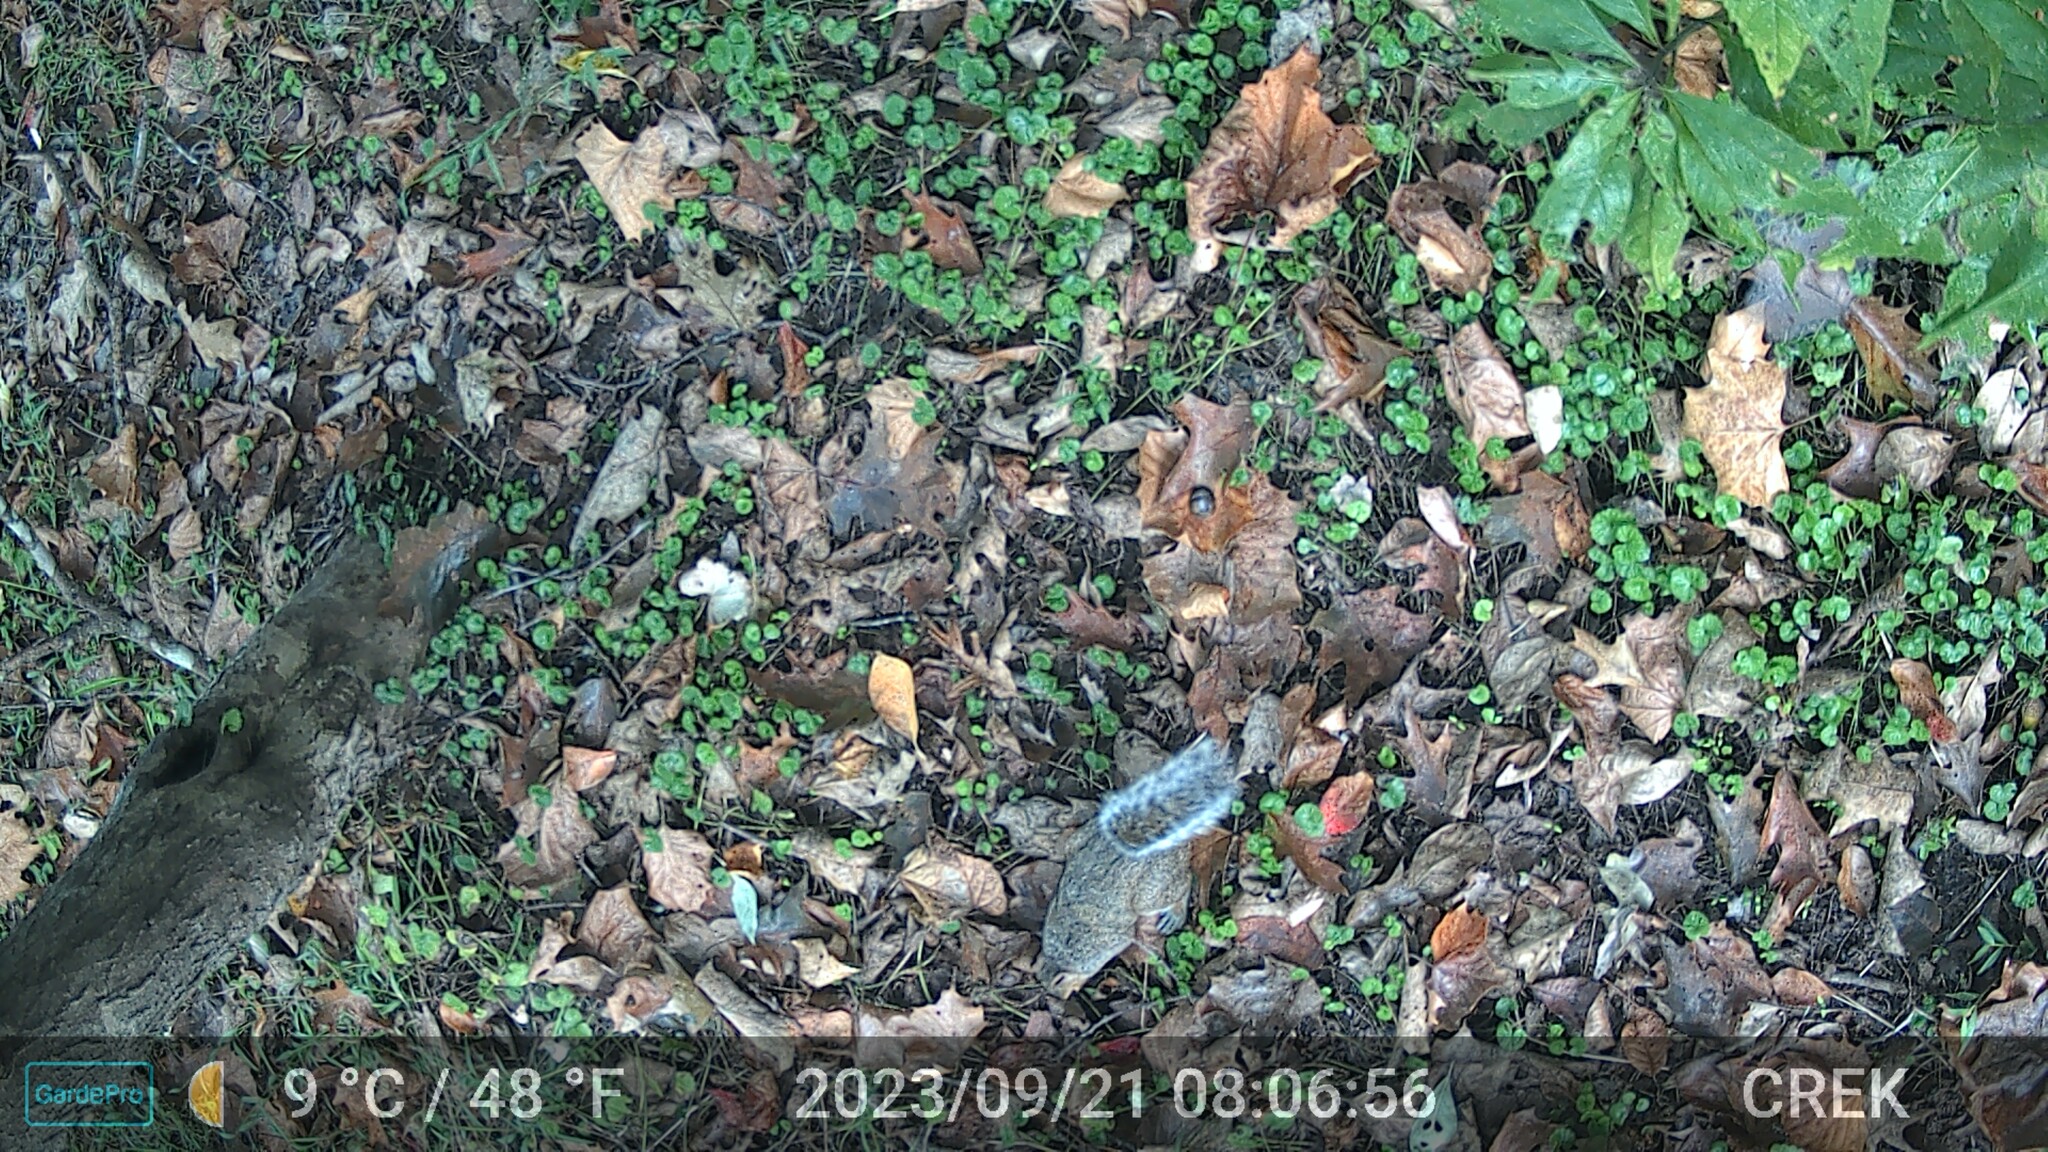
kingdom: Animalia
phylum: Chordata
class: Mammalia
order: Rodentia
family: Sciuridae
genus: Sciurus
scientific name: Sciurus carolinensis
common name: Eastern gray squirrel
